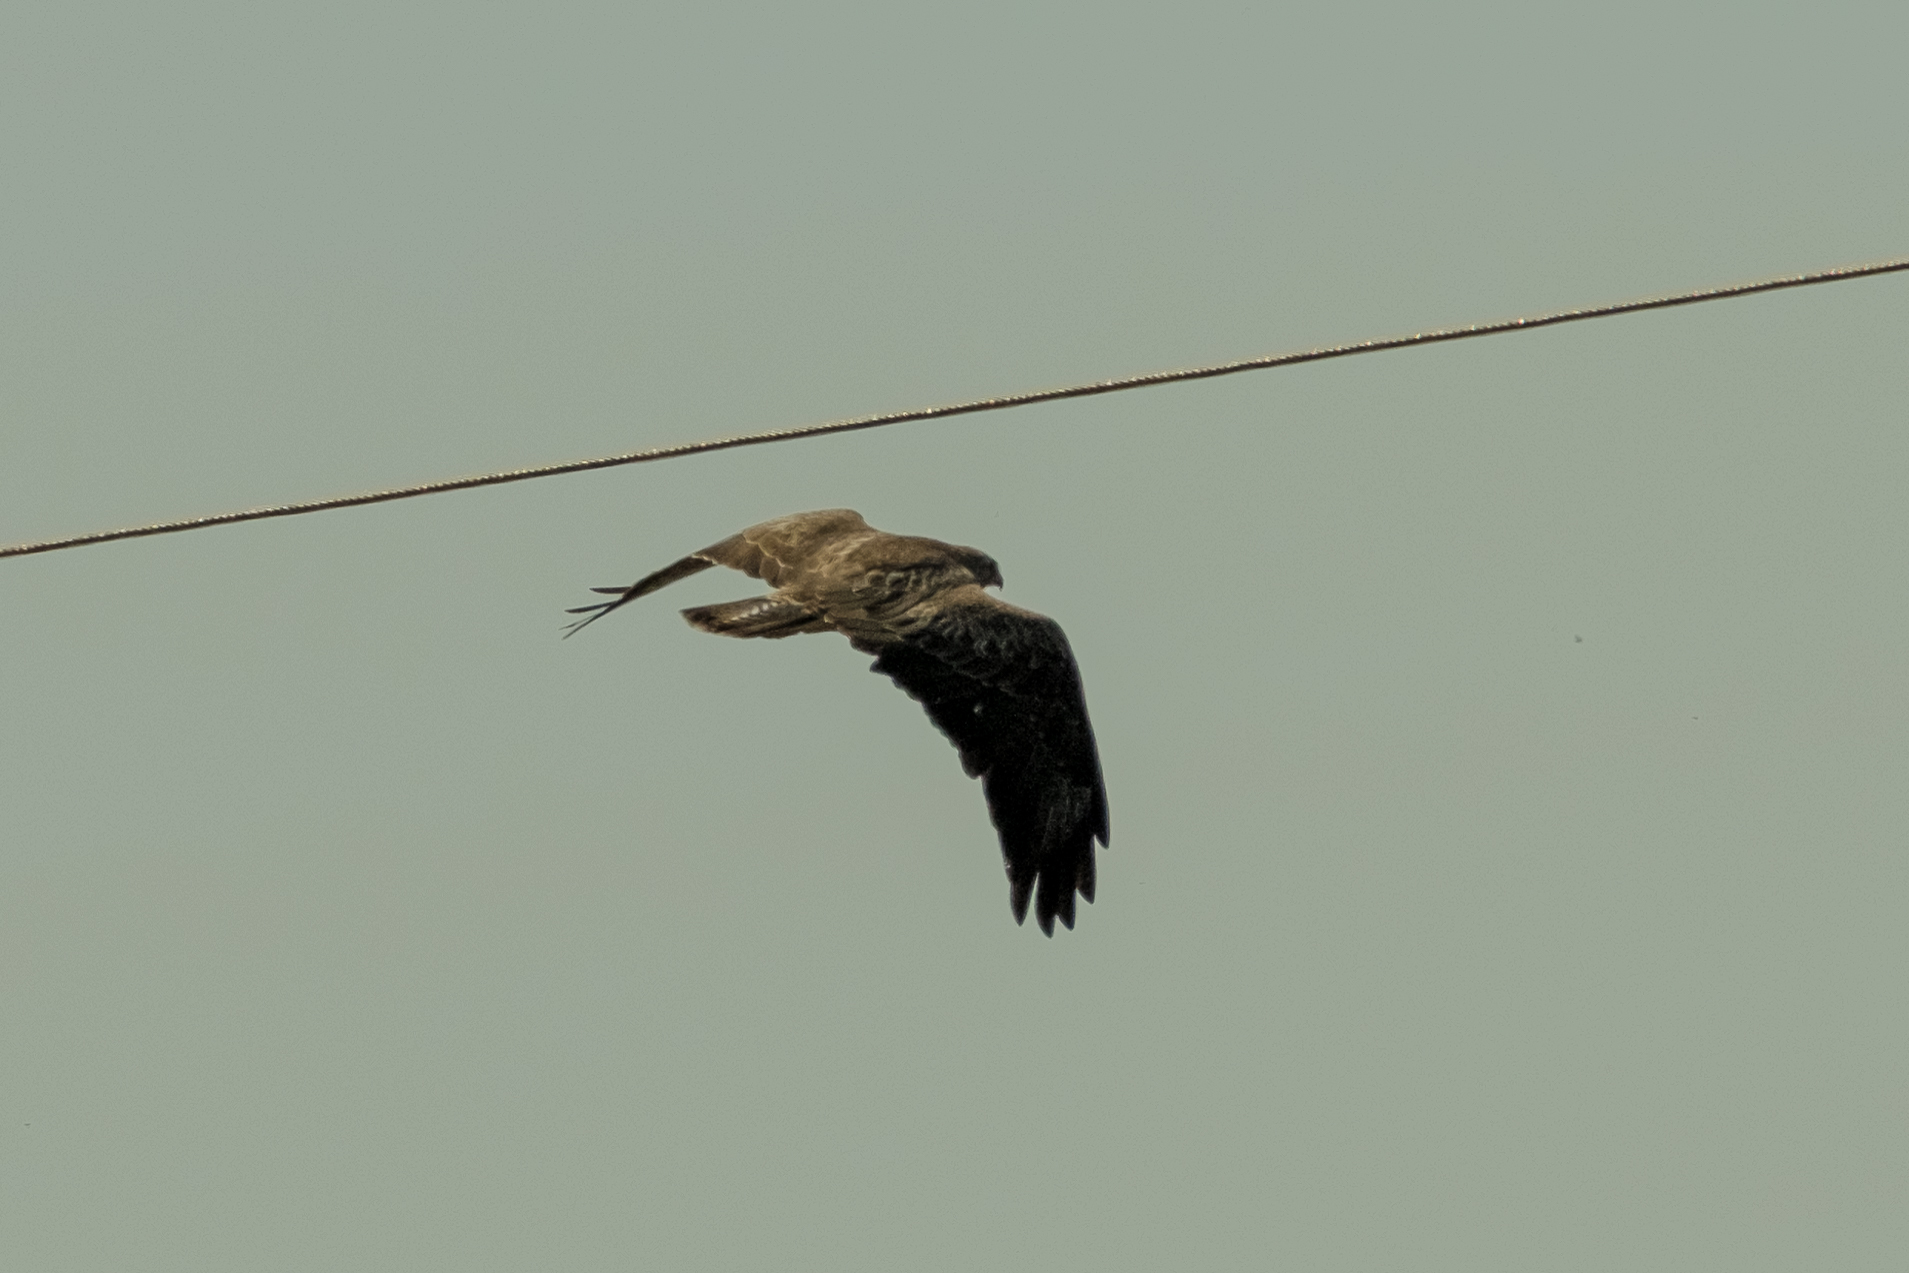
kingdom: Animalia
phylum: Chordata
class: Aves
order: Accipitriformes
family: Accipitridae
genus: Buteo
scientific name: Buteo buteo
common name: Common buzzard
